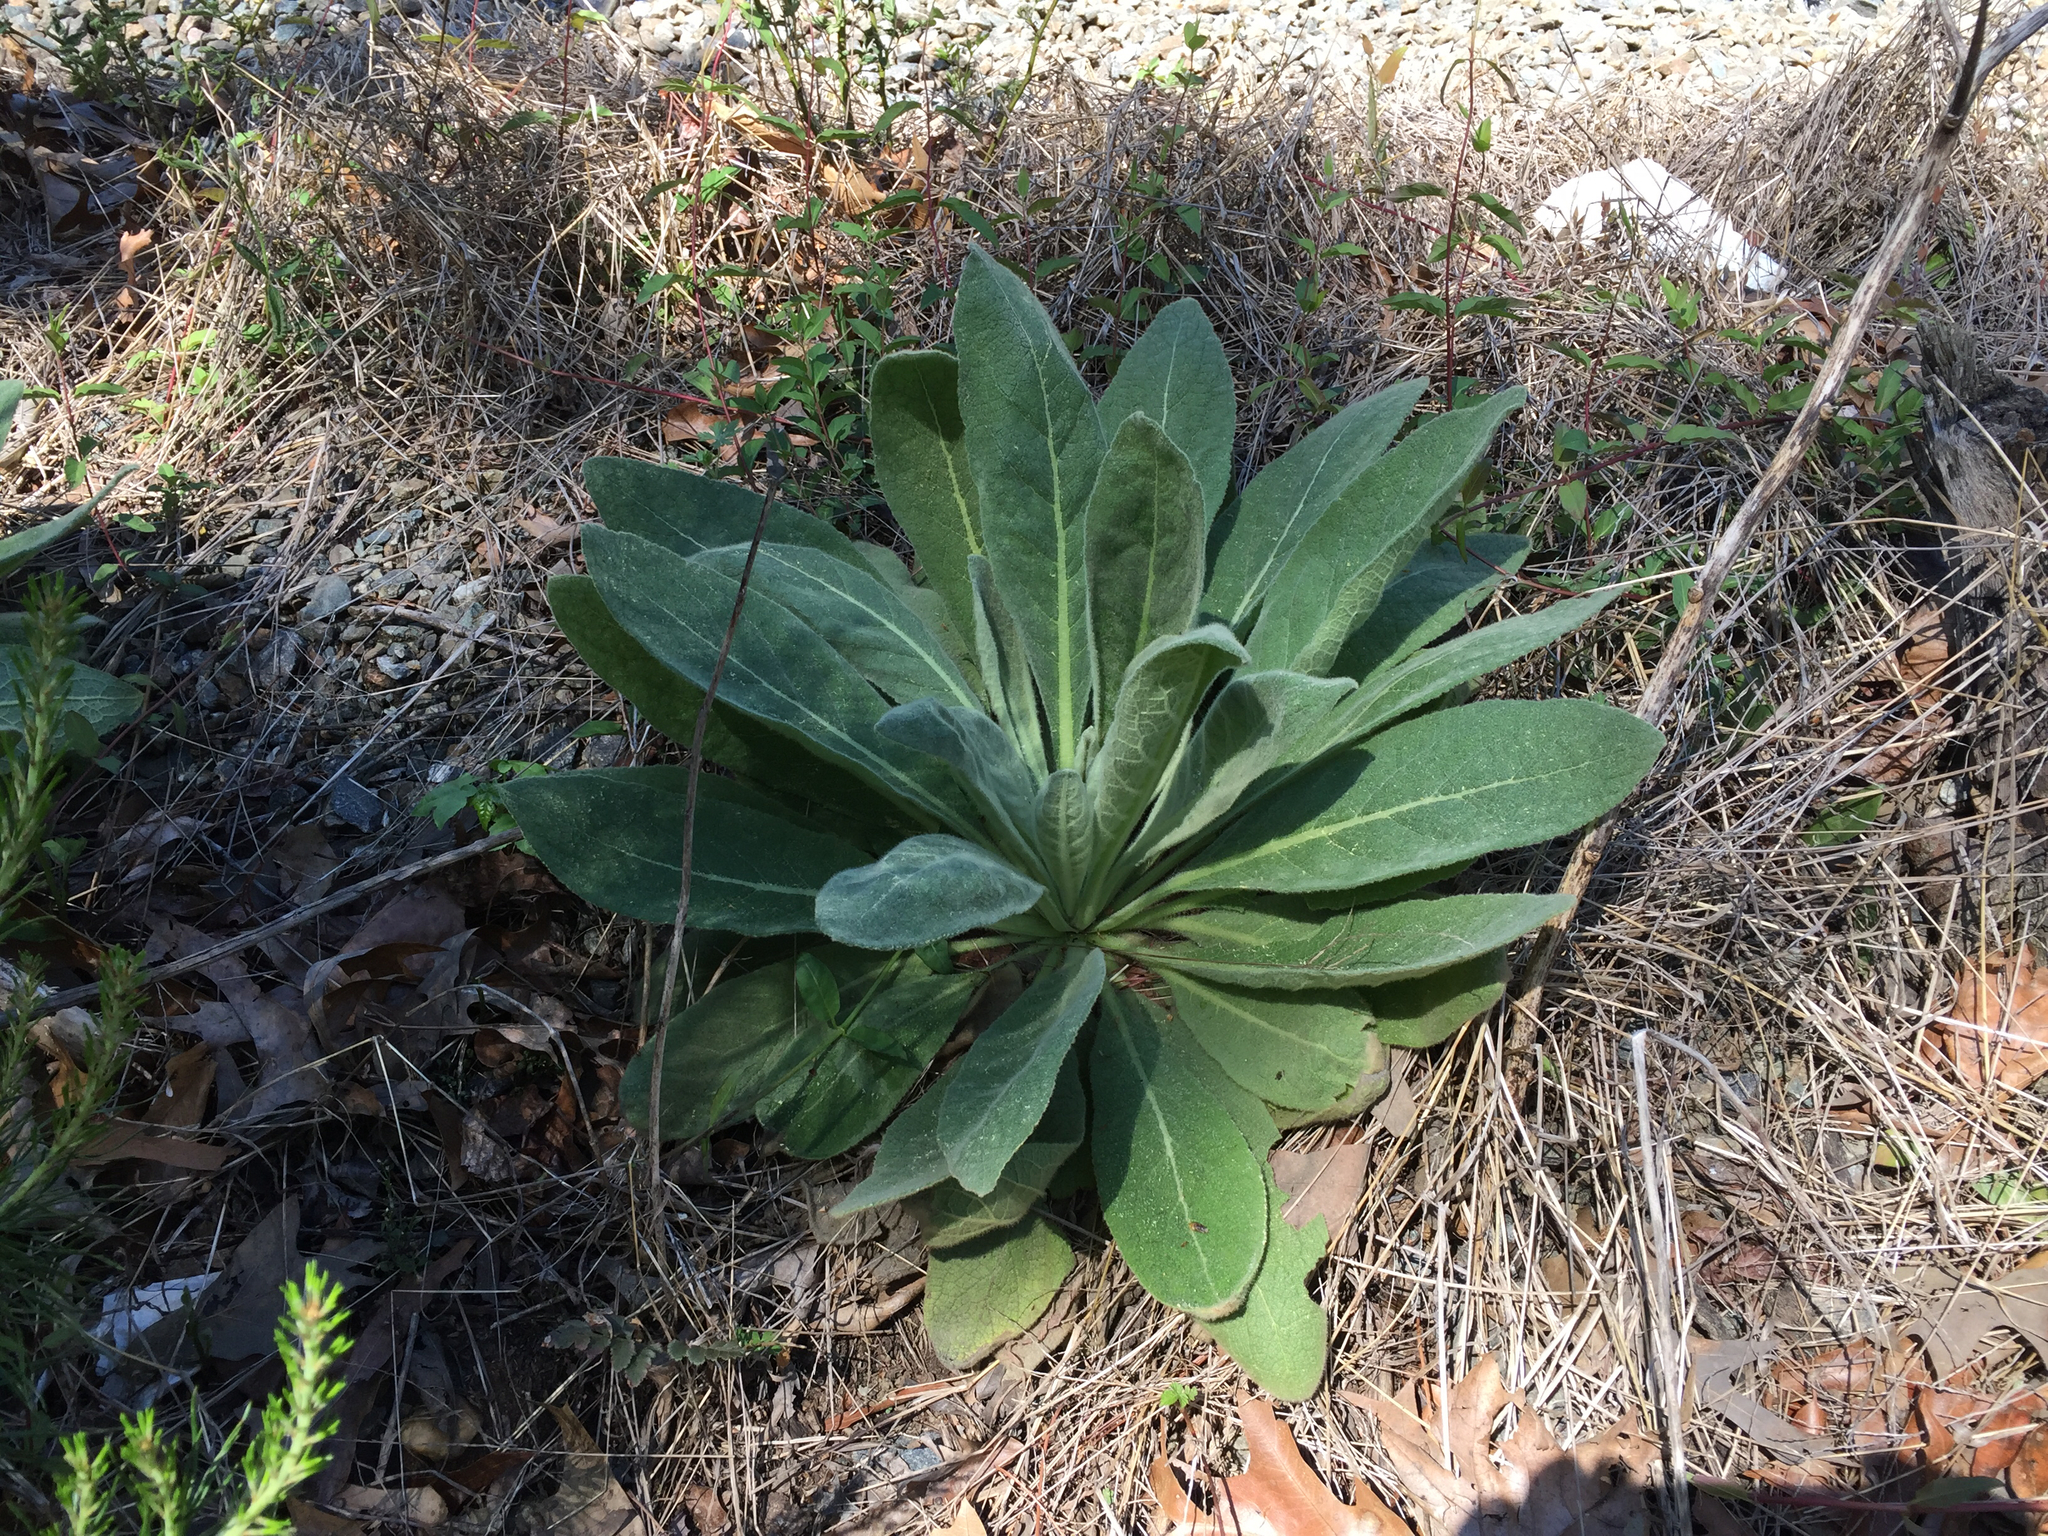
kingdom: Plantae
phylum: Tracheophyta
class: Magnoliopsida
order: Lamiales
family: Scrophulariaceae
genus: Verbascum
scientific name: Verbascum thapsus
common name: Common mullein
